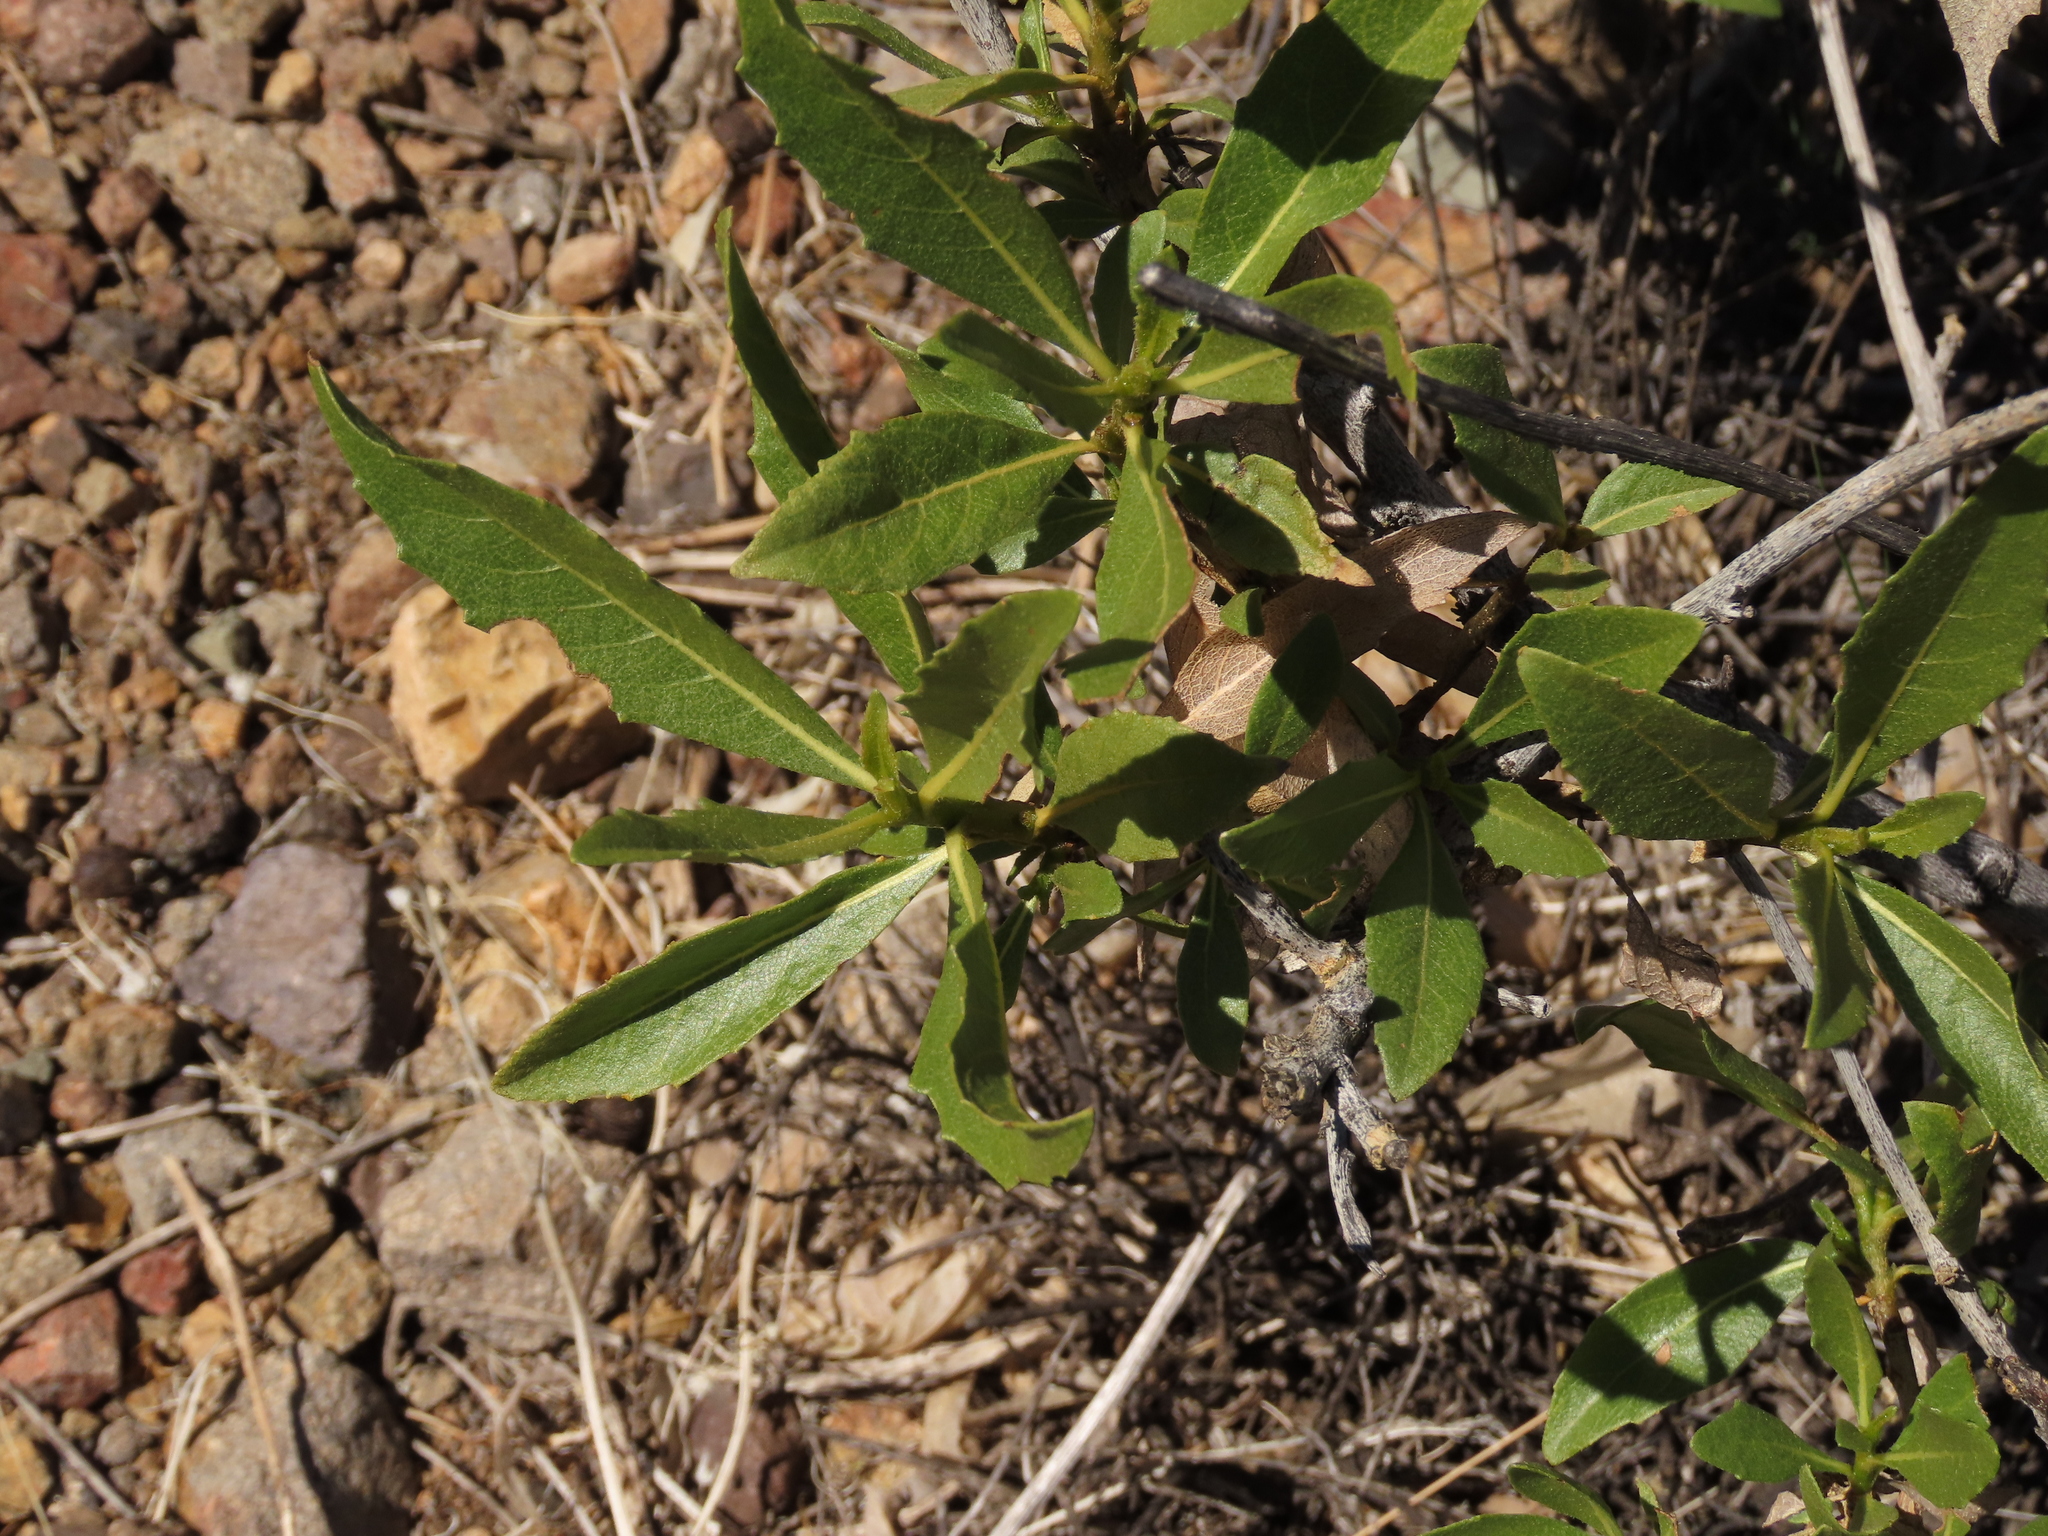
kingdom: Plantae
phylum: Tracheophyta
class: Magnoliopsida
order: Asterales
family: Asteraceae
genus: Flourensia
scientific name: Flourensia thurifera
